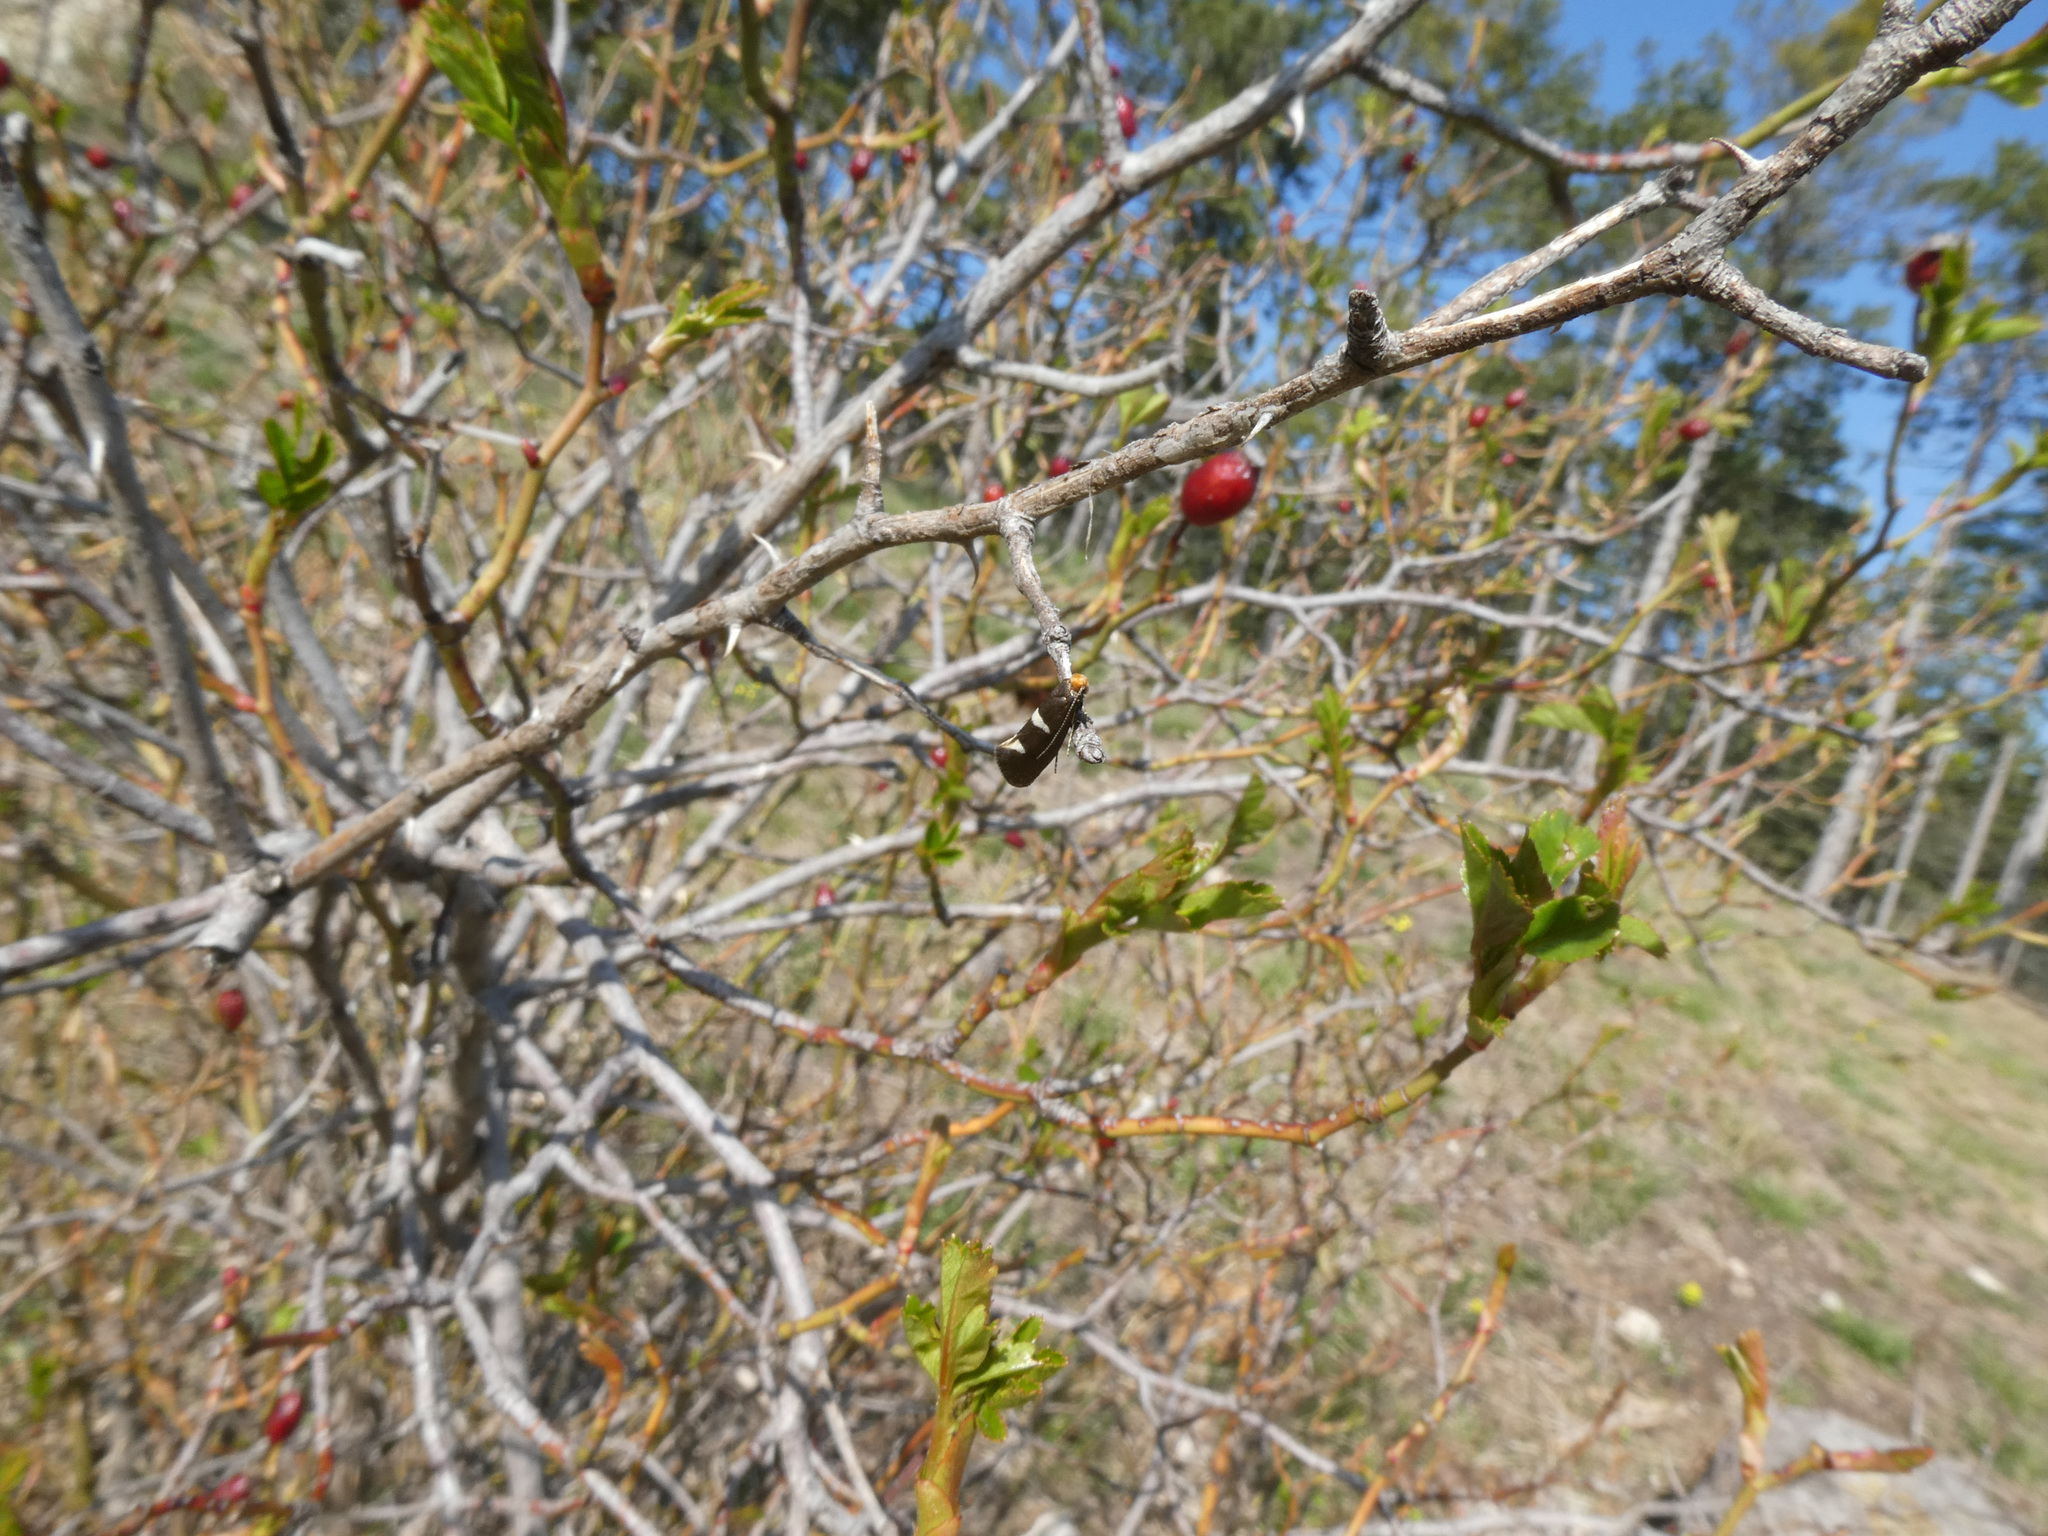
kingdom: Animalia
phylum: Arthropoda
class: Insecta
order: Lepidoptera
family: Incurvariidae
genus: Incurvaria
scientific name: Incurvaria masculella
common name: Feathered leaf-cutter
